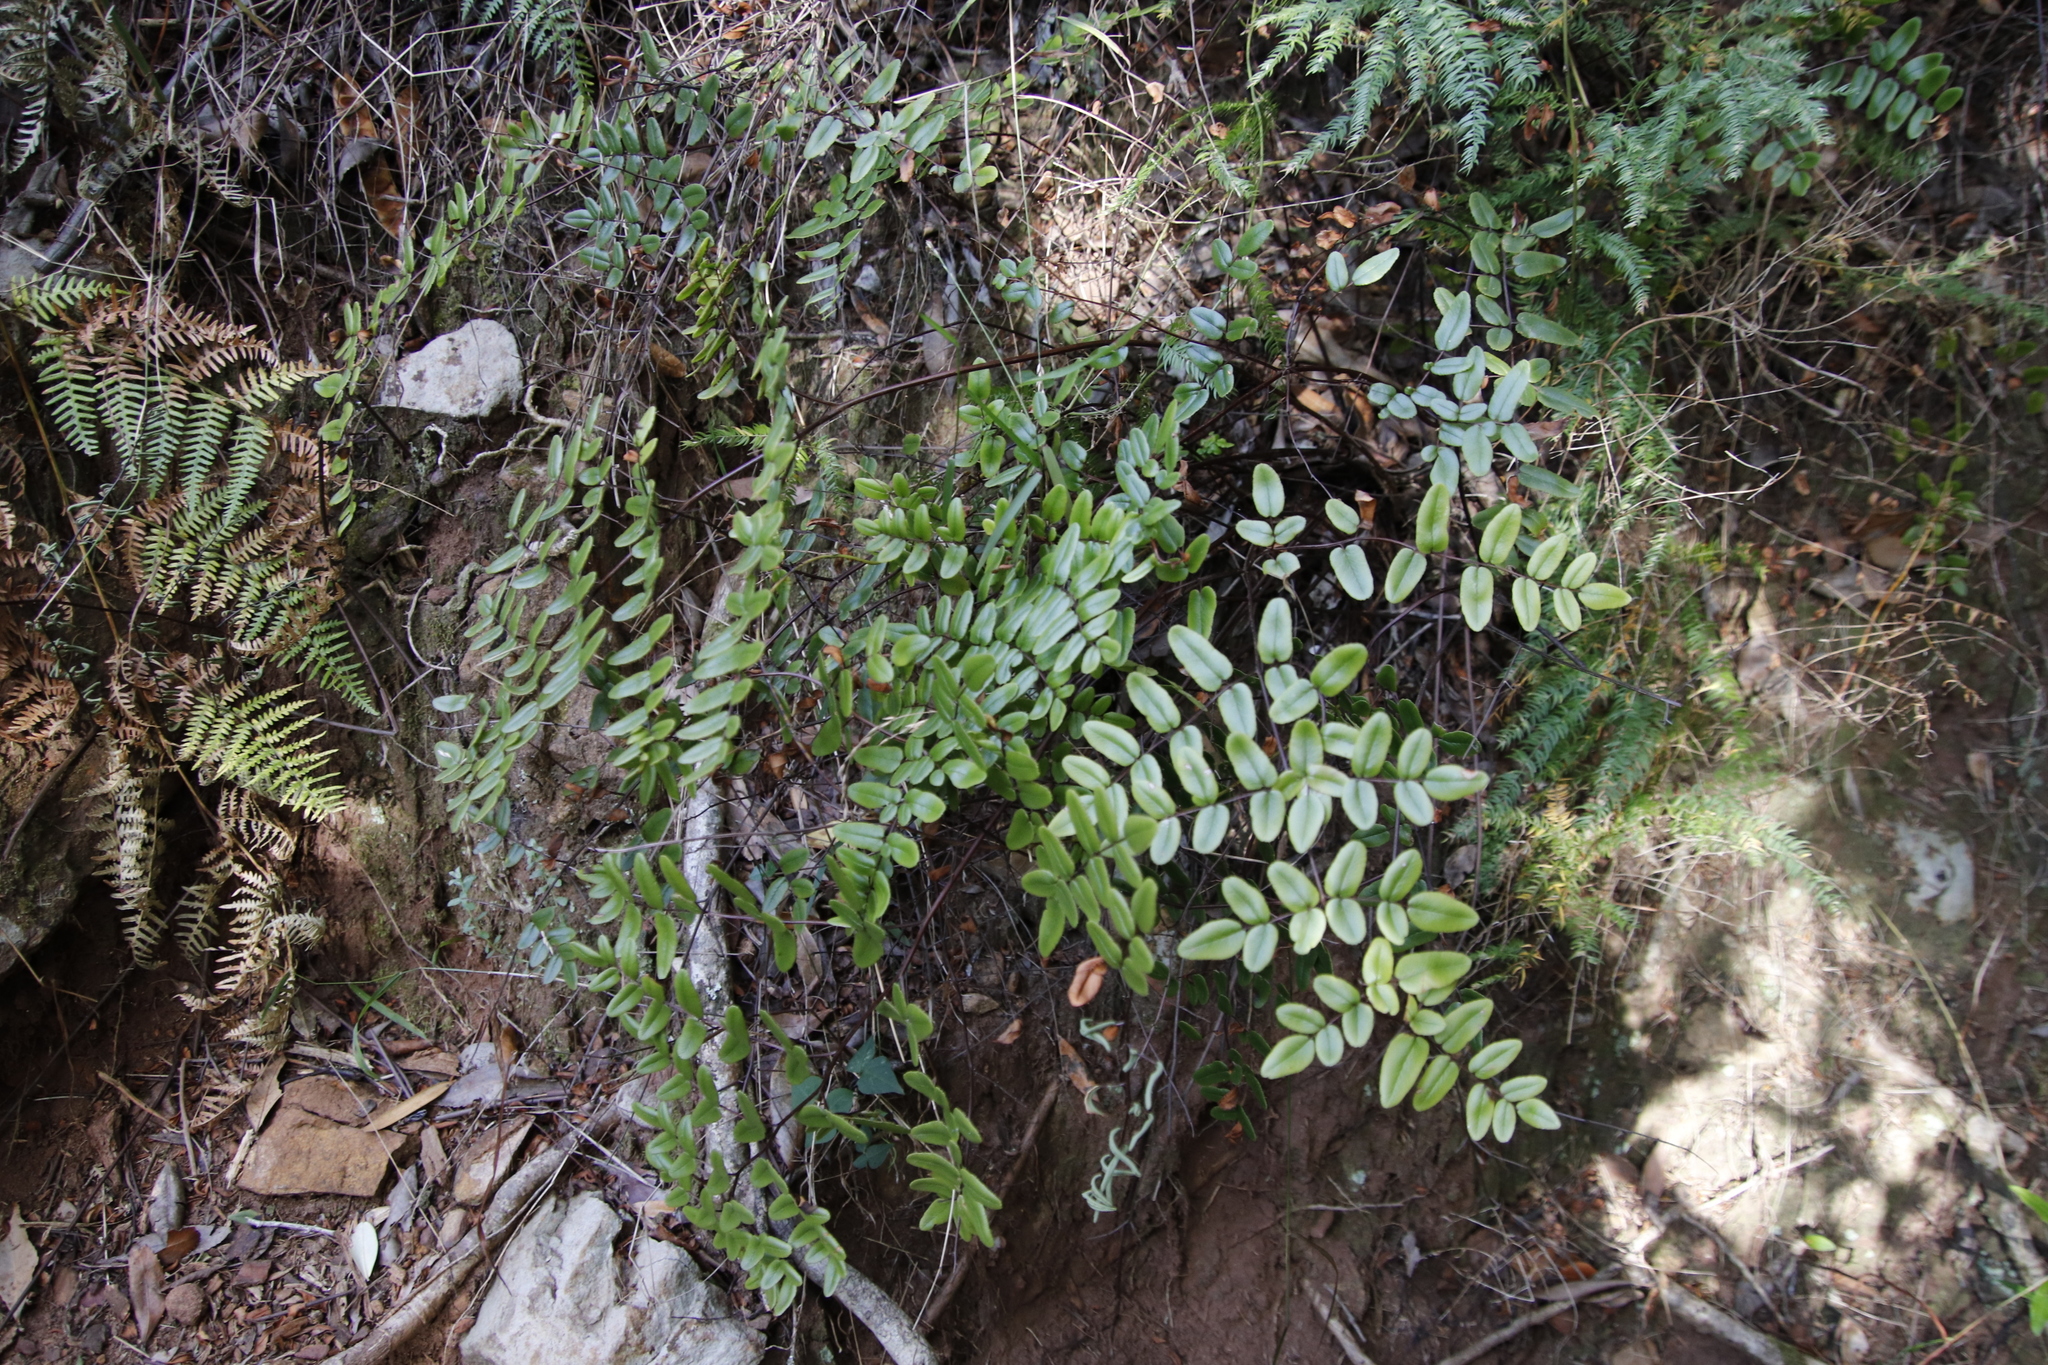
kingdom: Plantae
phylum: Tracheophyta
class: Polypodiopsida
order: Polypodiales
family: Pteridaceae
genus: Pellaea
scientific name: Pellaea pteroides
